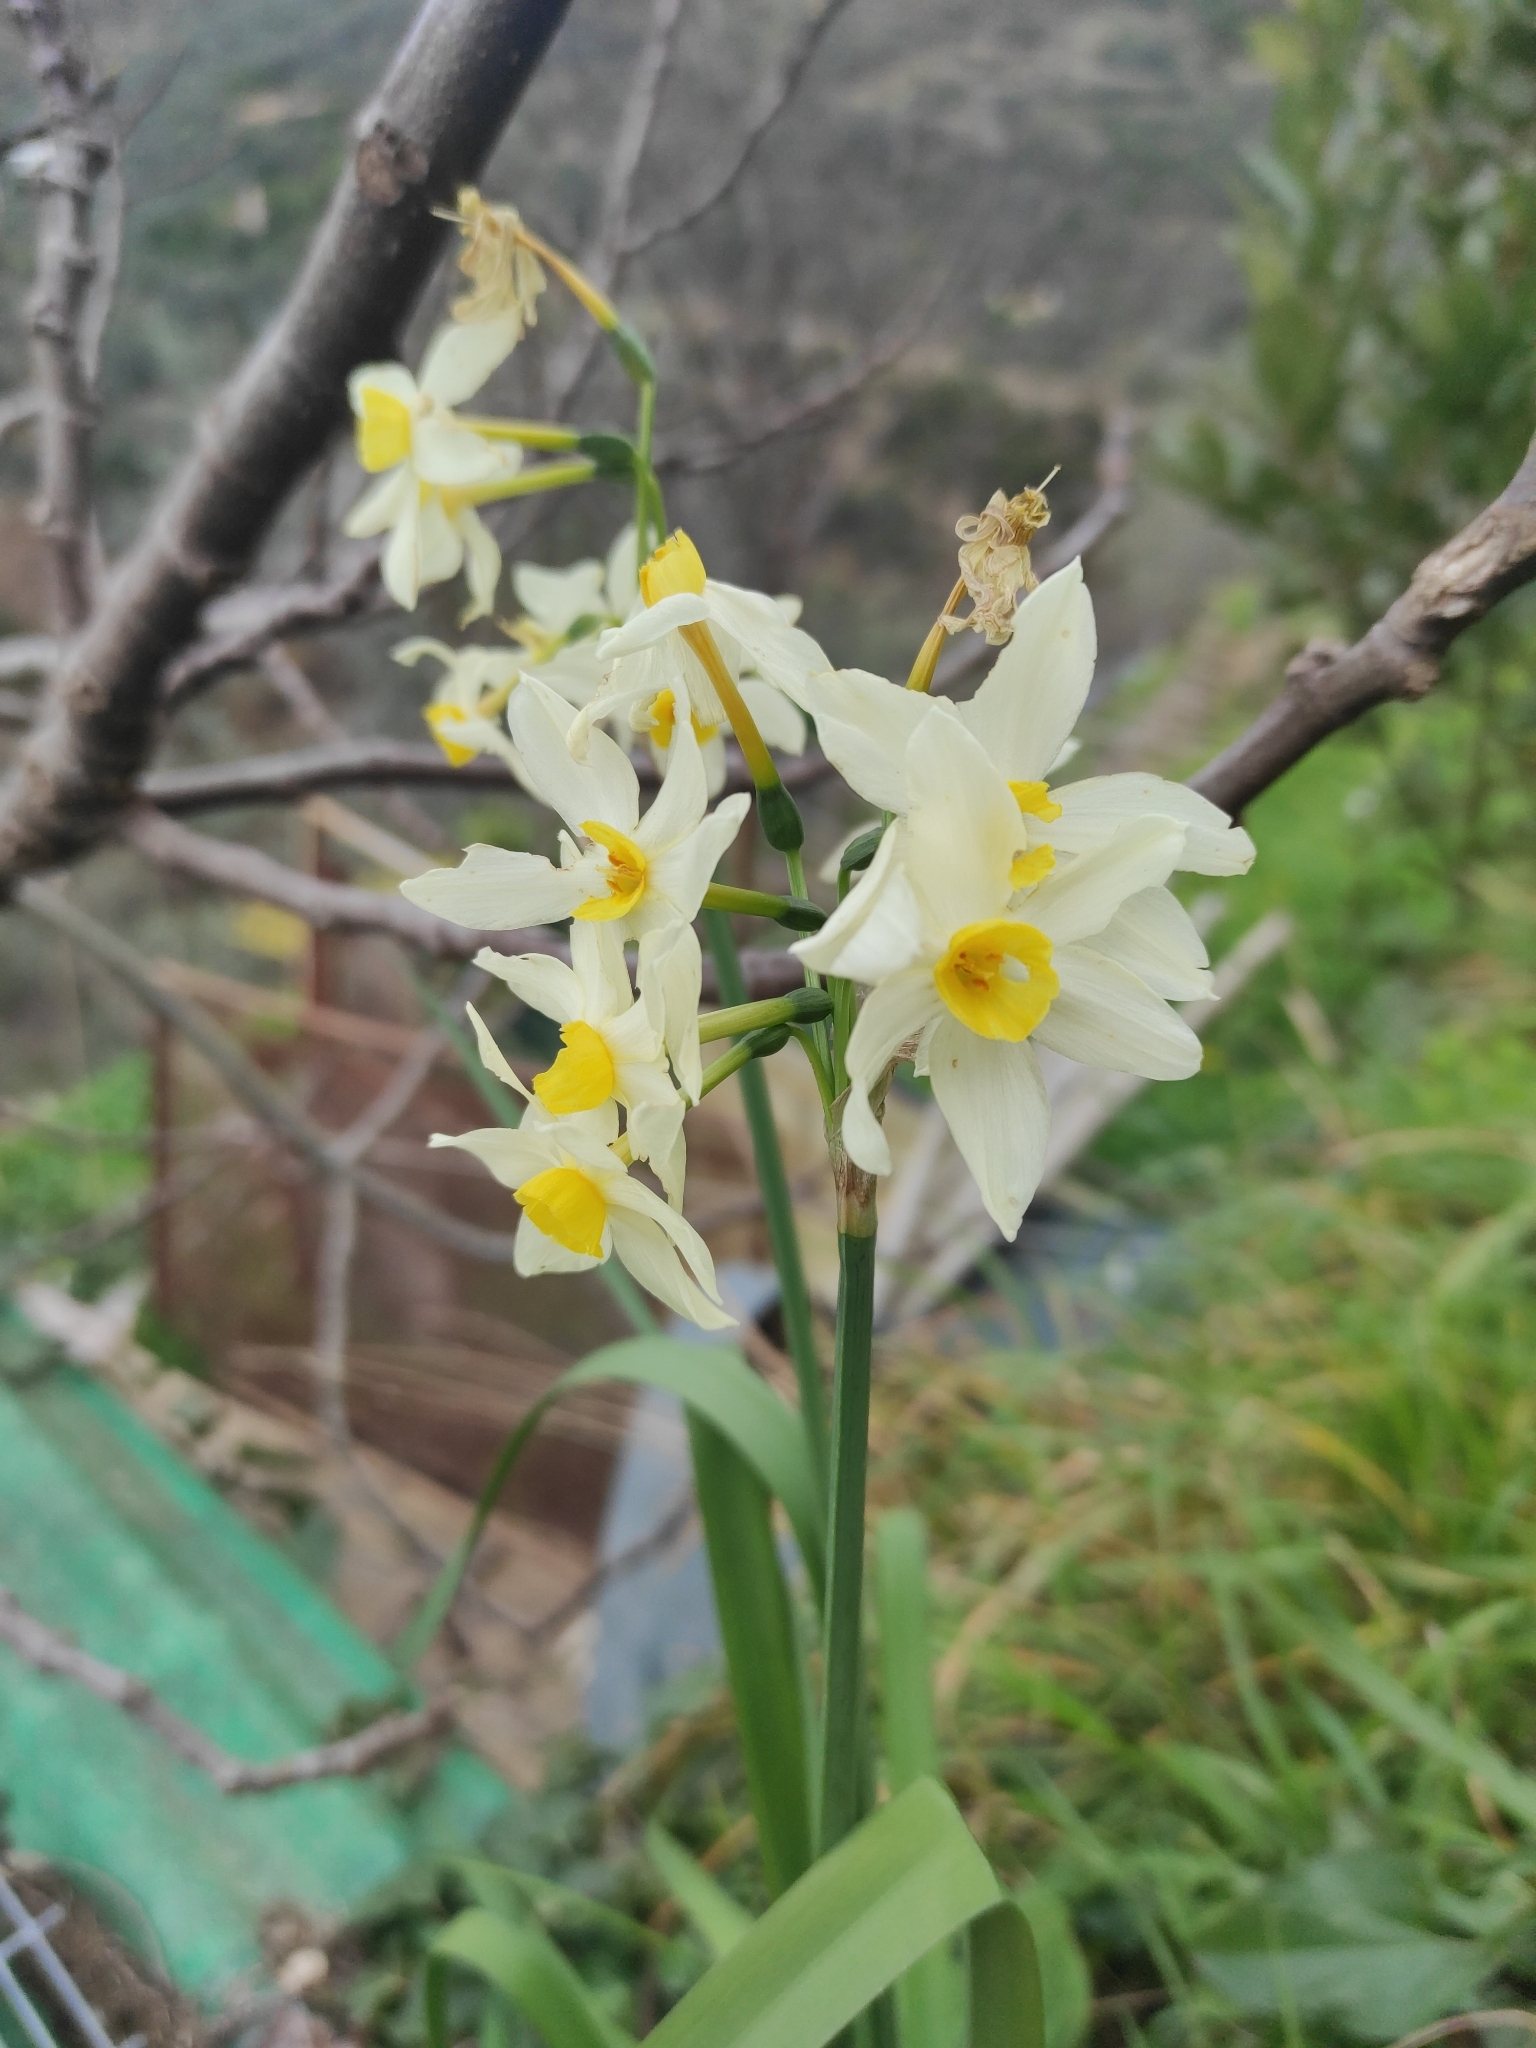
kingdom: Plantae
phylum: Tracheophyta
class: Liliopsida
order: Asparagales
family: Amaryllidaceae
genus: Narcissus
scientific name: Narcissus tazetta
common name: Bunch-flowered daffodil
